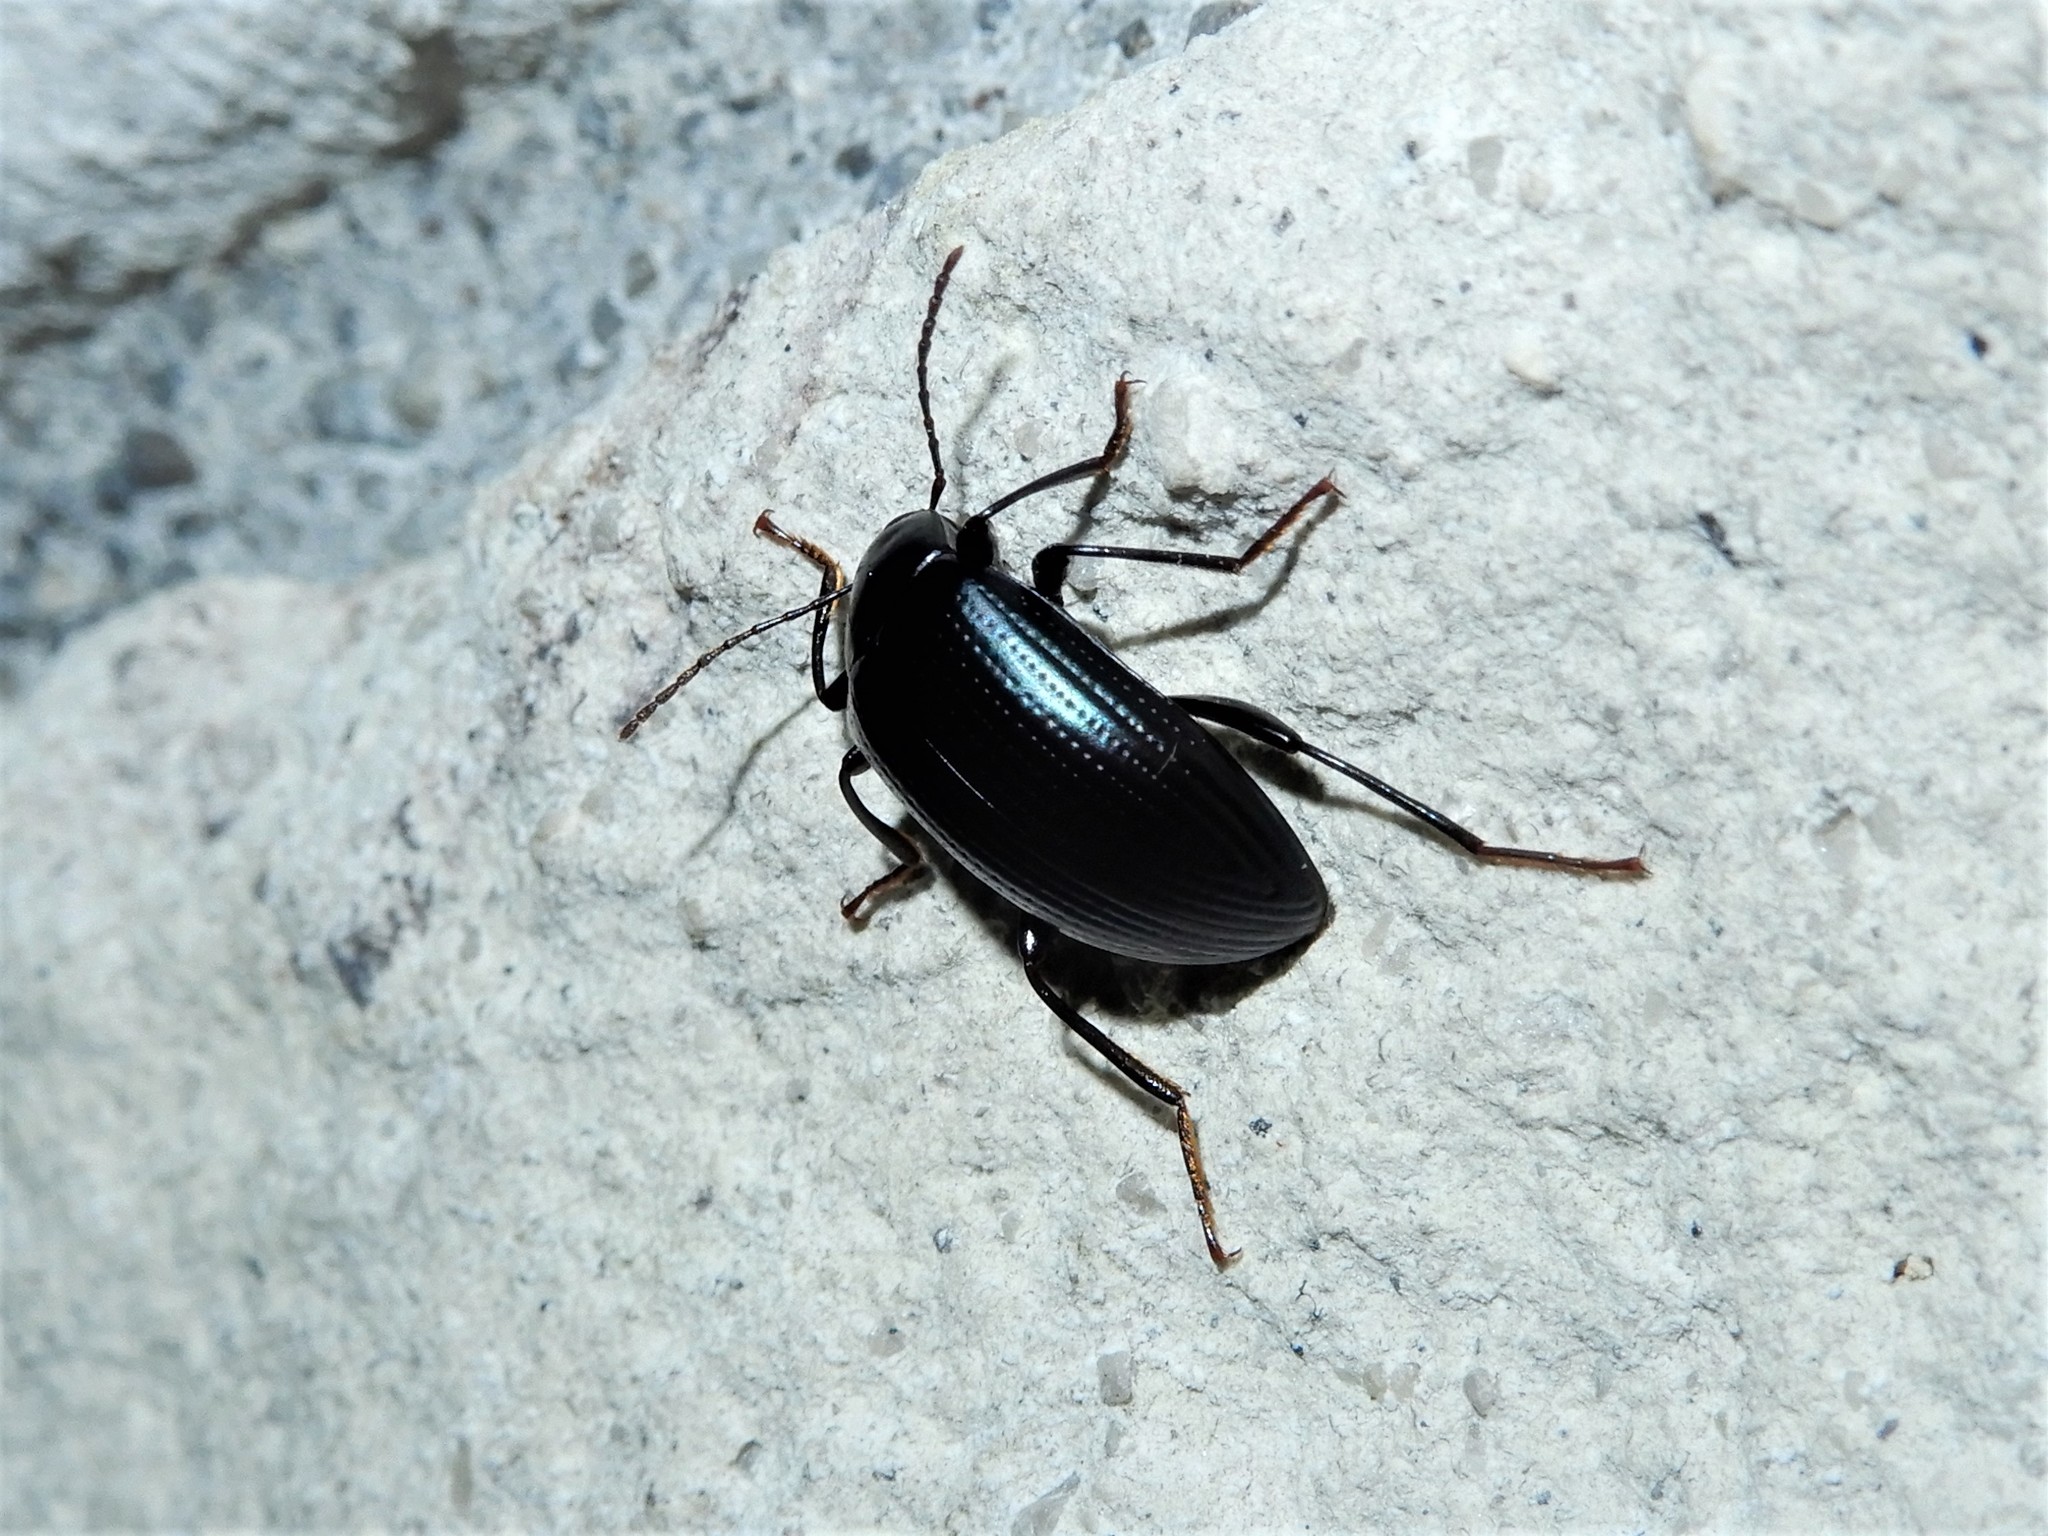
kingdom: Animalia
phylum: Arthropoda
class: Insecta
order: Coleoptera
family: Tenebrionidae
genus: Amarygmus
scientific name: Amarygmus
